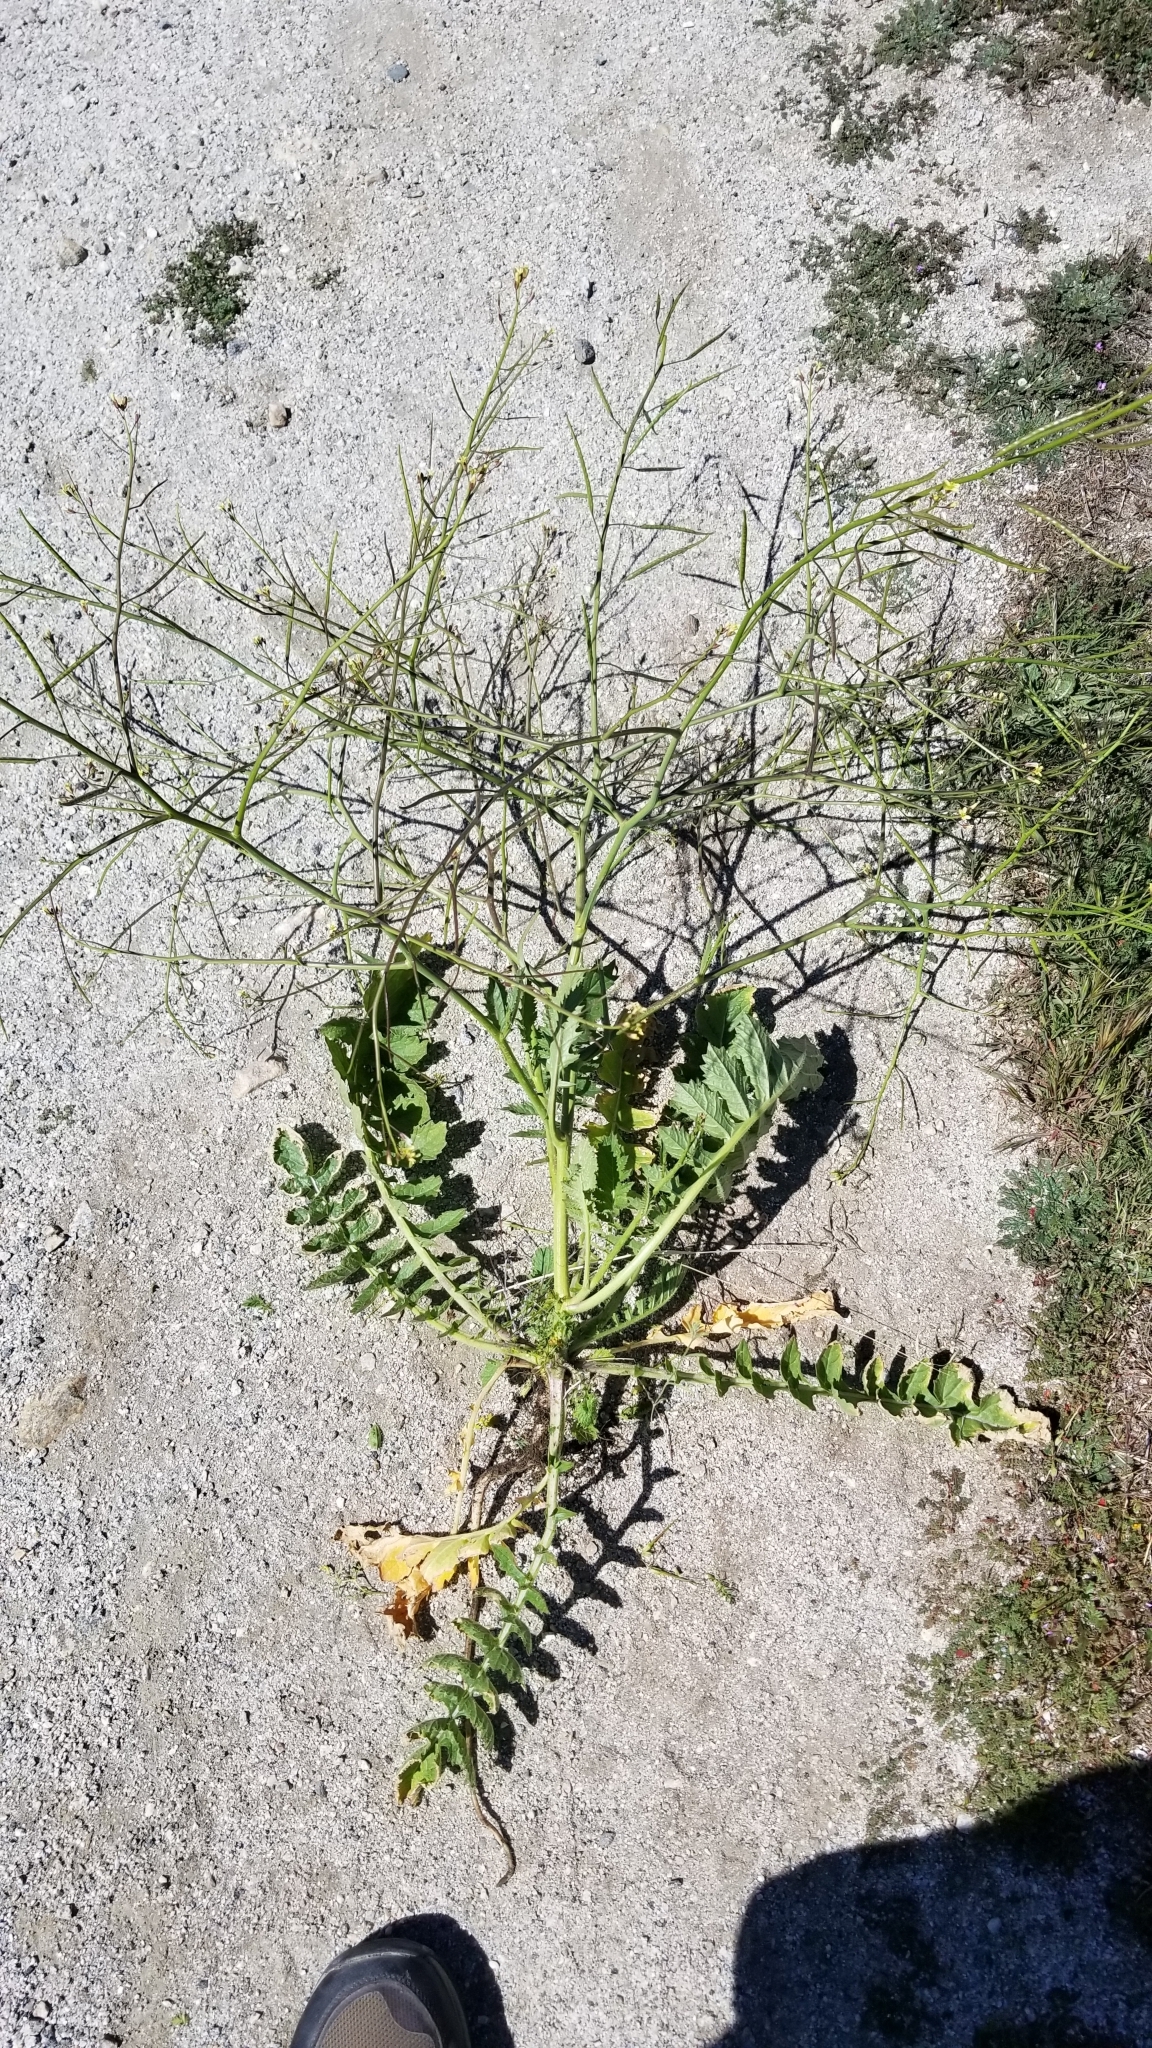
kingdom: Plantae
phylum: Tracheophyta
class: Magnoliopsida
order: Brassicales
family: Brassicaceae
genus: Brassica
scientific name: Brassica tournefortii
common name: Pale cabbage
